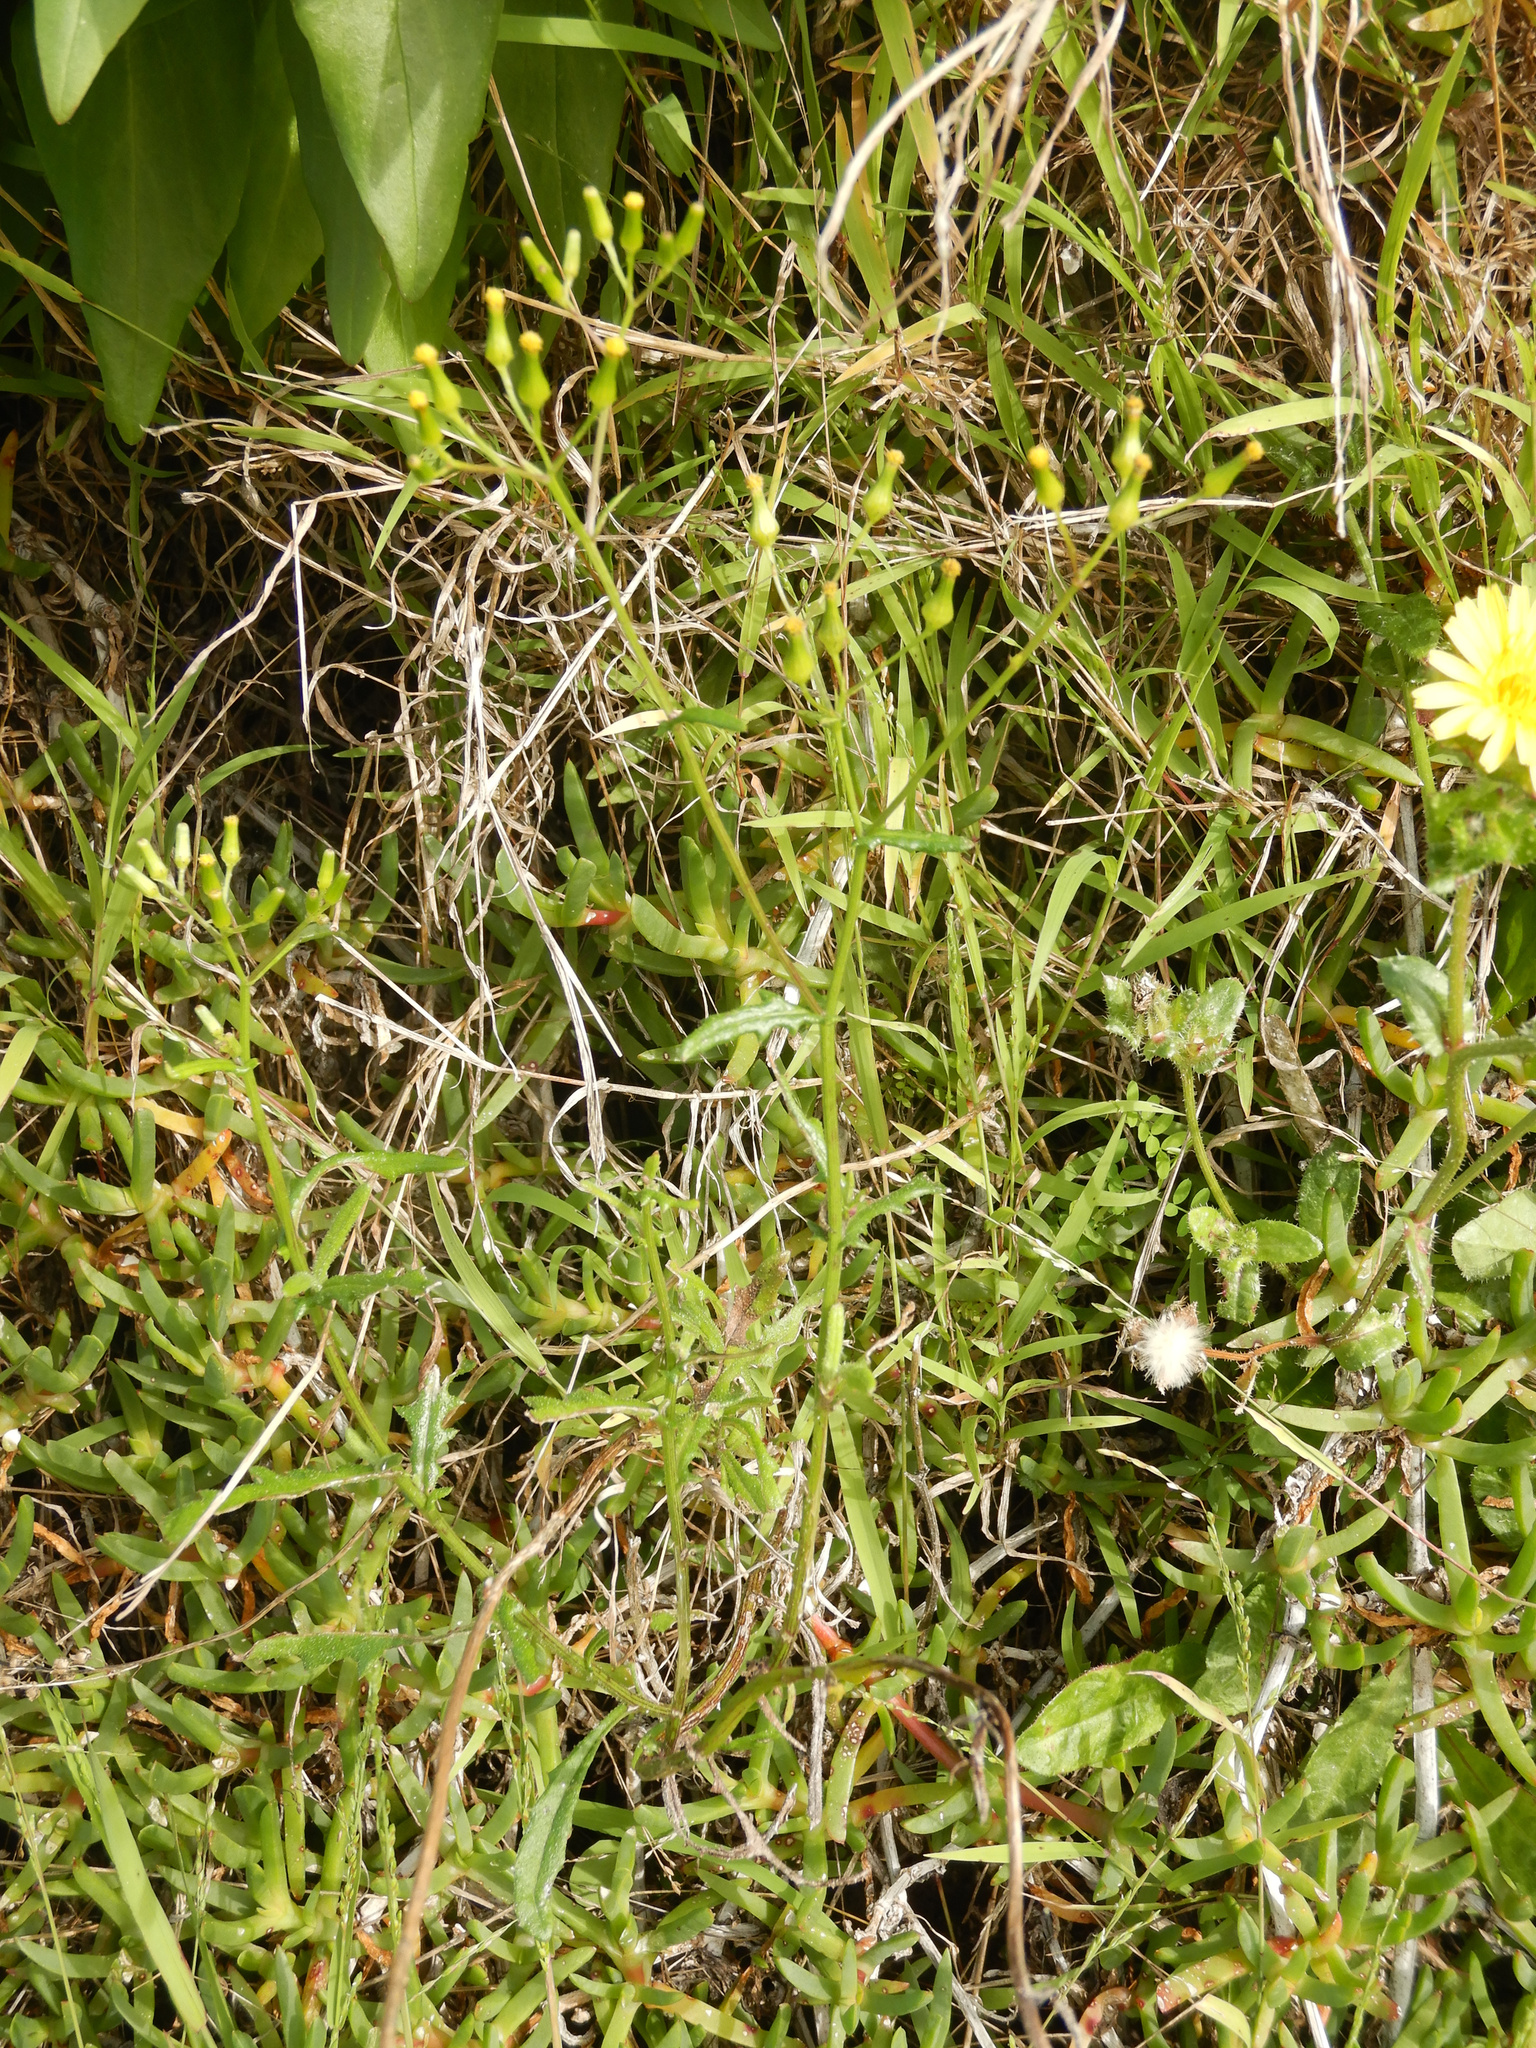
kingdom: Plantae
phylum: Tracheophyta
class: Magnoliopsida
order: Asterales
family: Asteraceae
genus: Senecio
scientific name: Senecio hispidulus
